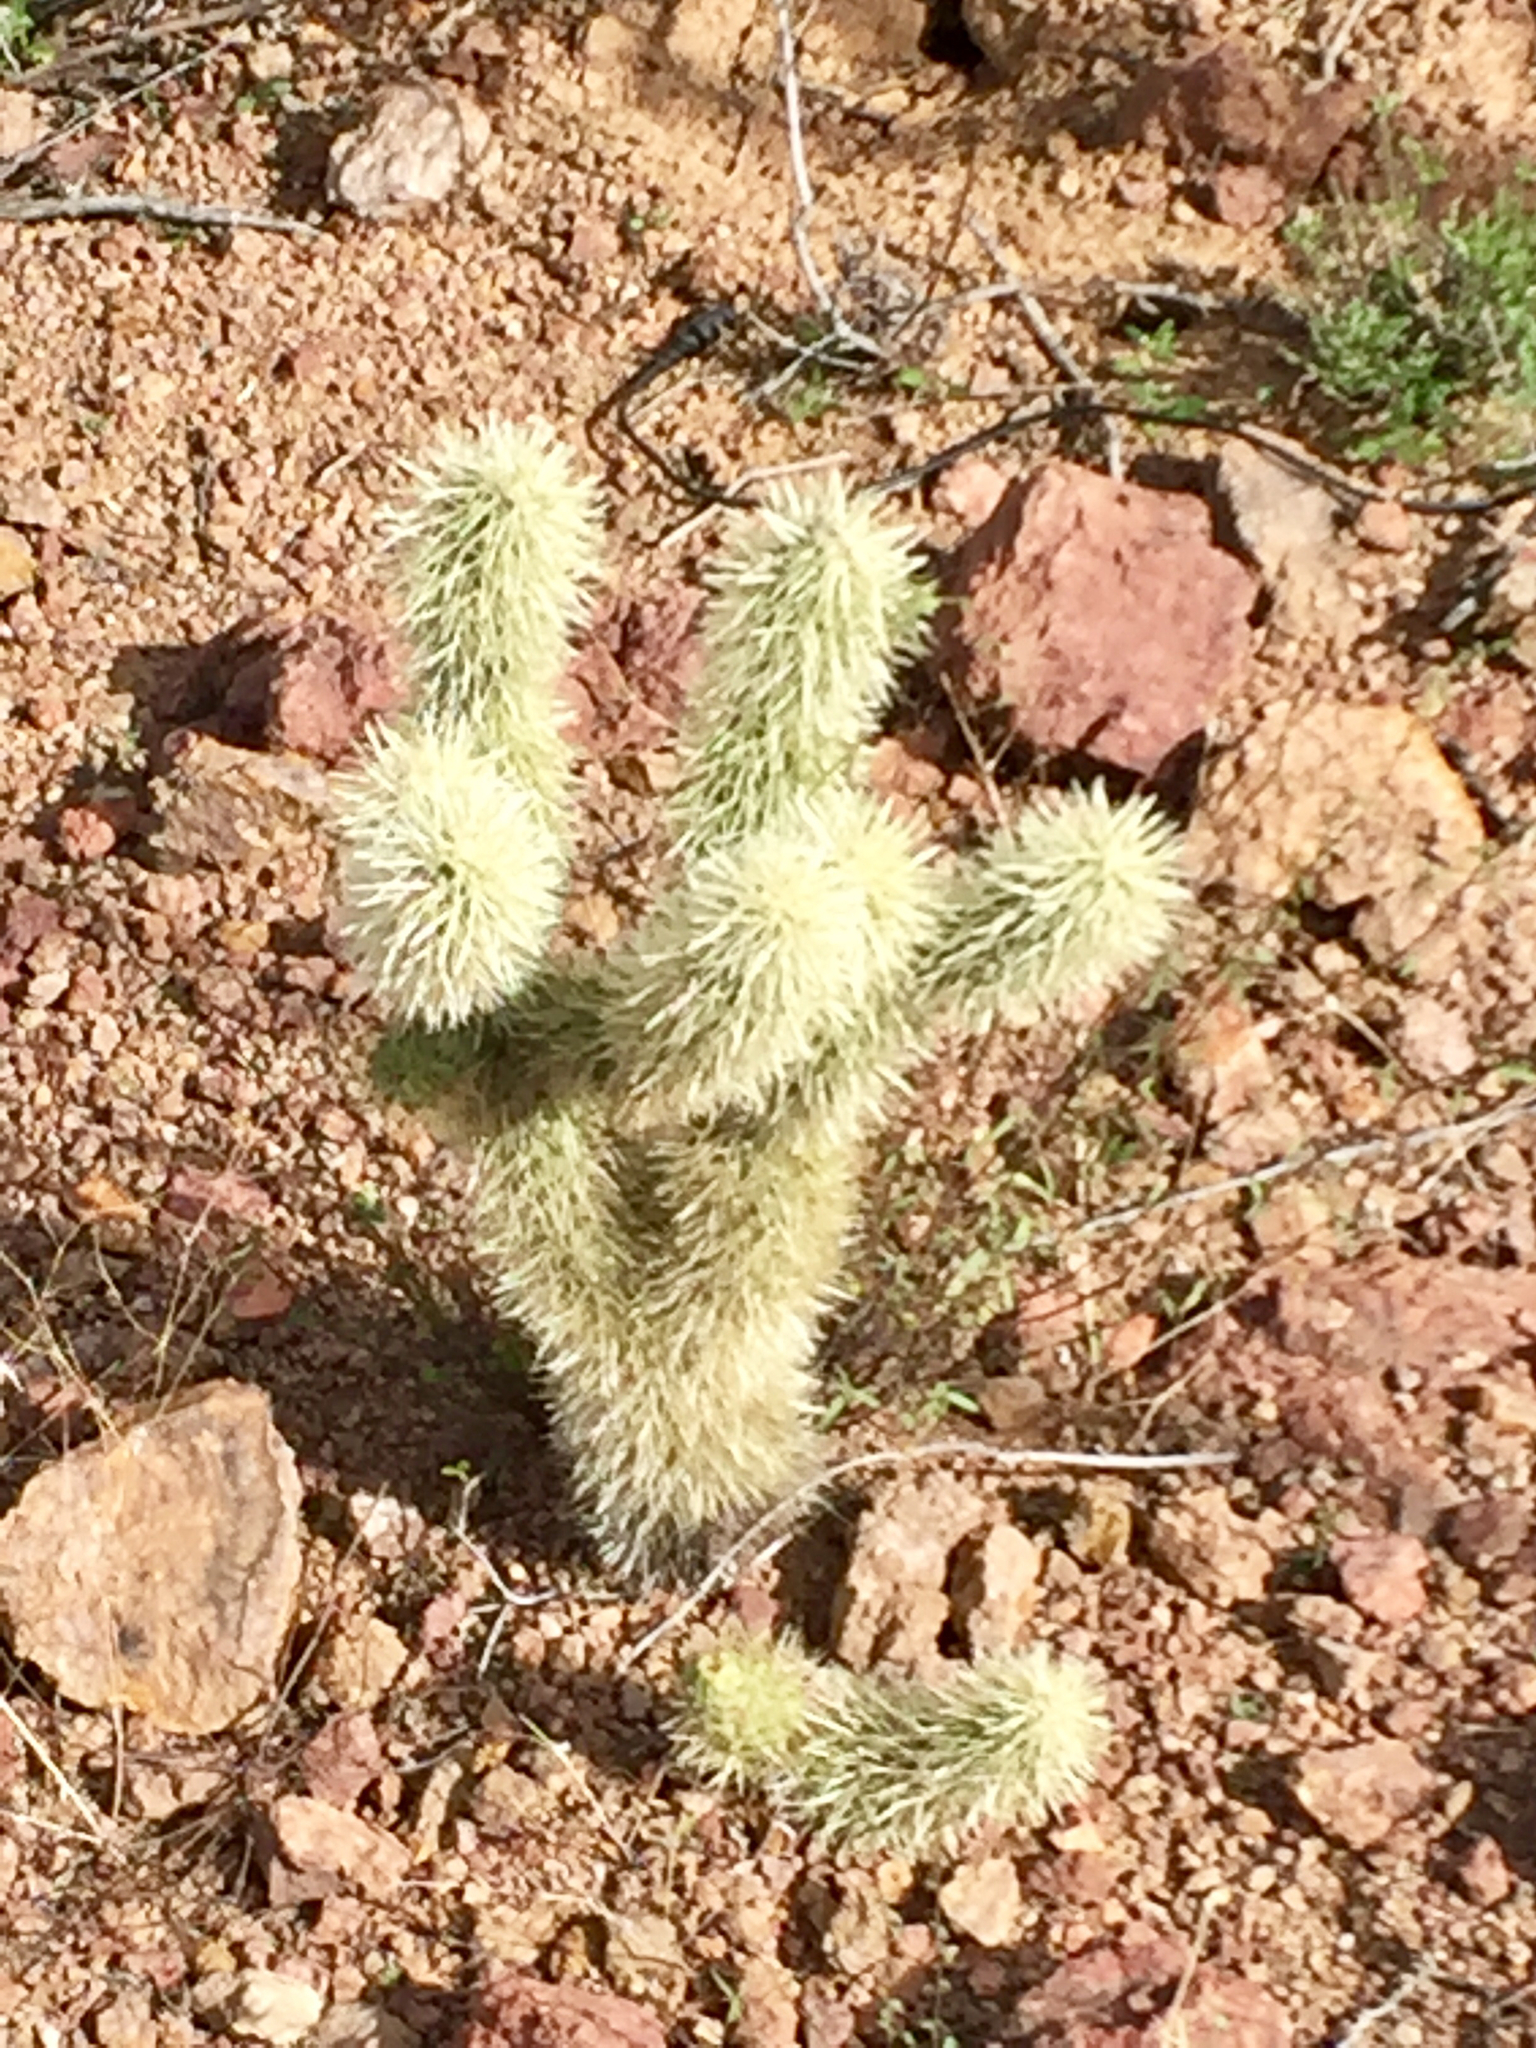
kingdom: Plantae
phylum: Tracheophyta
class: Magnoliopsida
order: Caryophyllales
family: Cactaceae
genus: Cylindropuntia
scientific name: Cylindropuntia fosbergii
